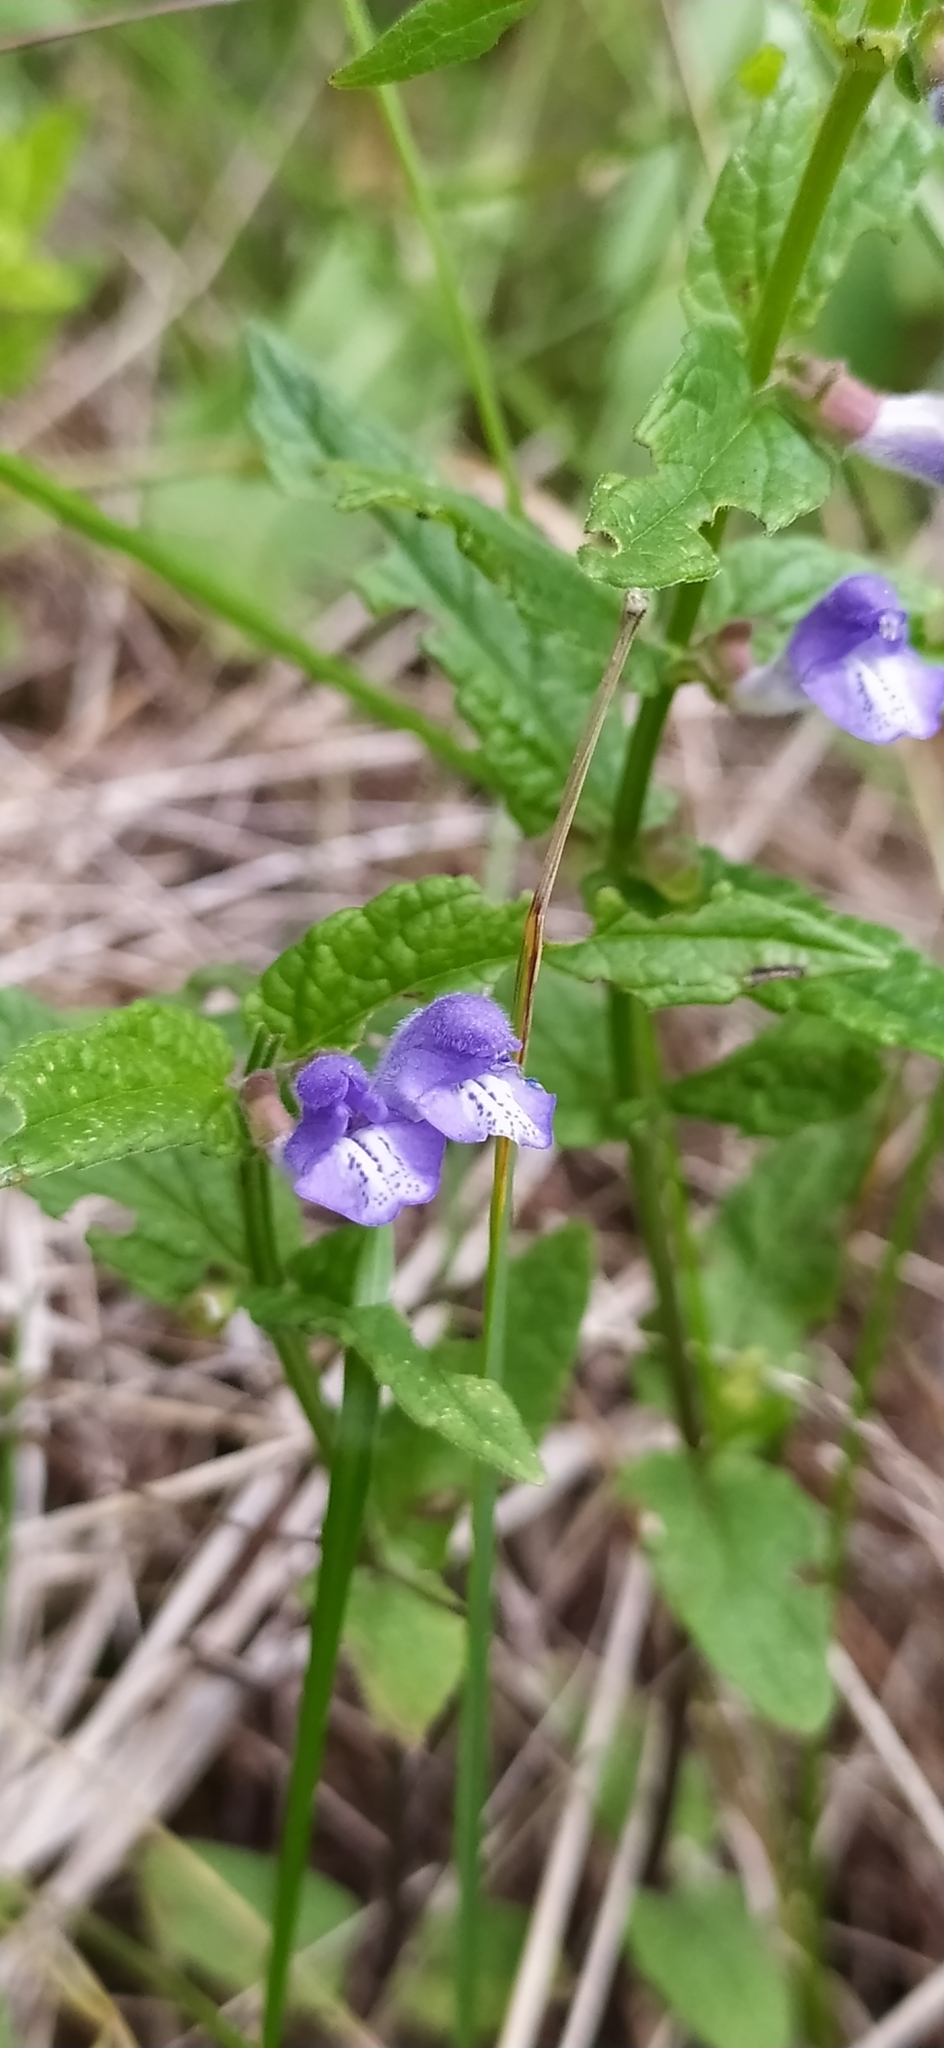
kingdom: Plantae
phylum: Tracheophyta
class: Magnoliopsida
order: Lamiales
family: Lamiaceae
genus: Scutellaria
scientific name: Scutellaria galericulata
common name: Skullcap
